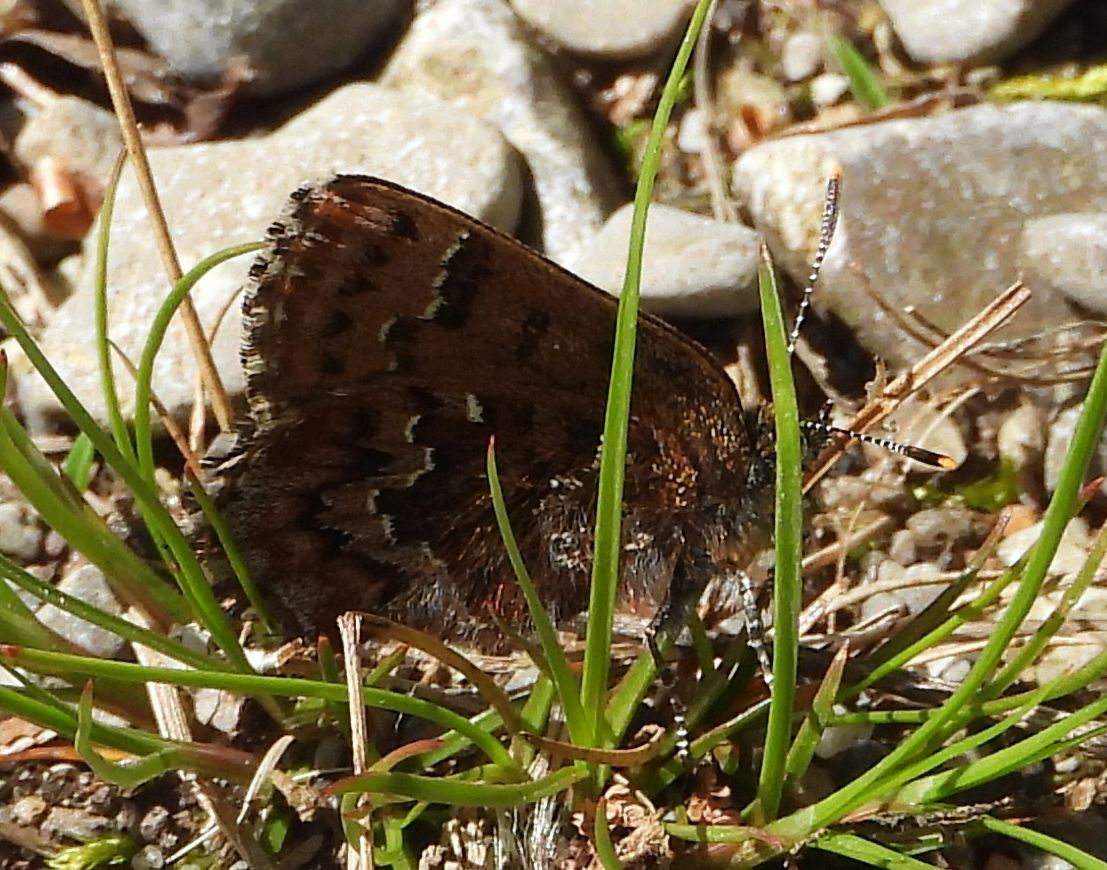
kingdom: Animalia
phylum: Arthropoda
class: Insecta
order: Lepidoptera
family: Lycaenidae
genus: Incisalia
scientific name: Incisalia niphon
